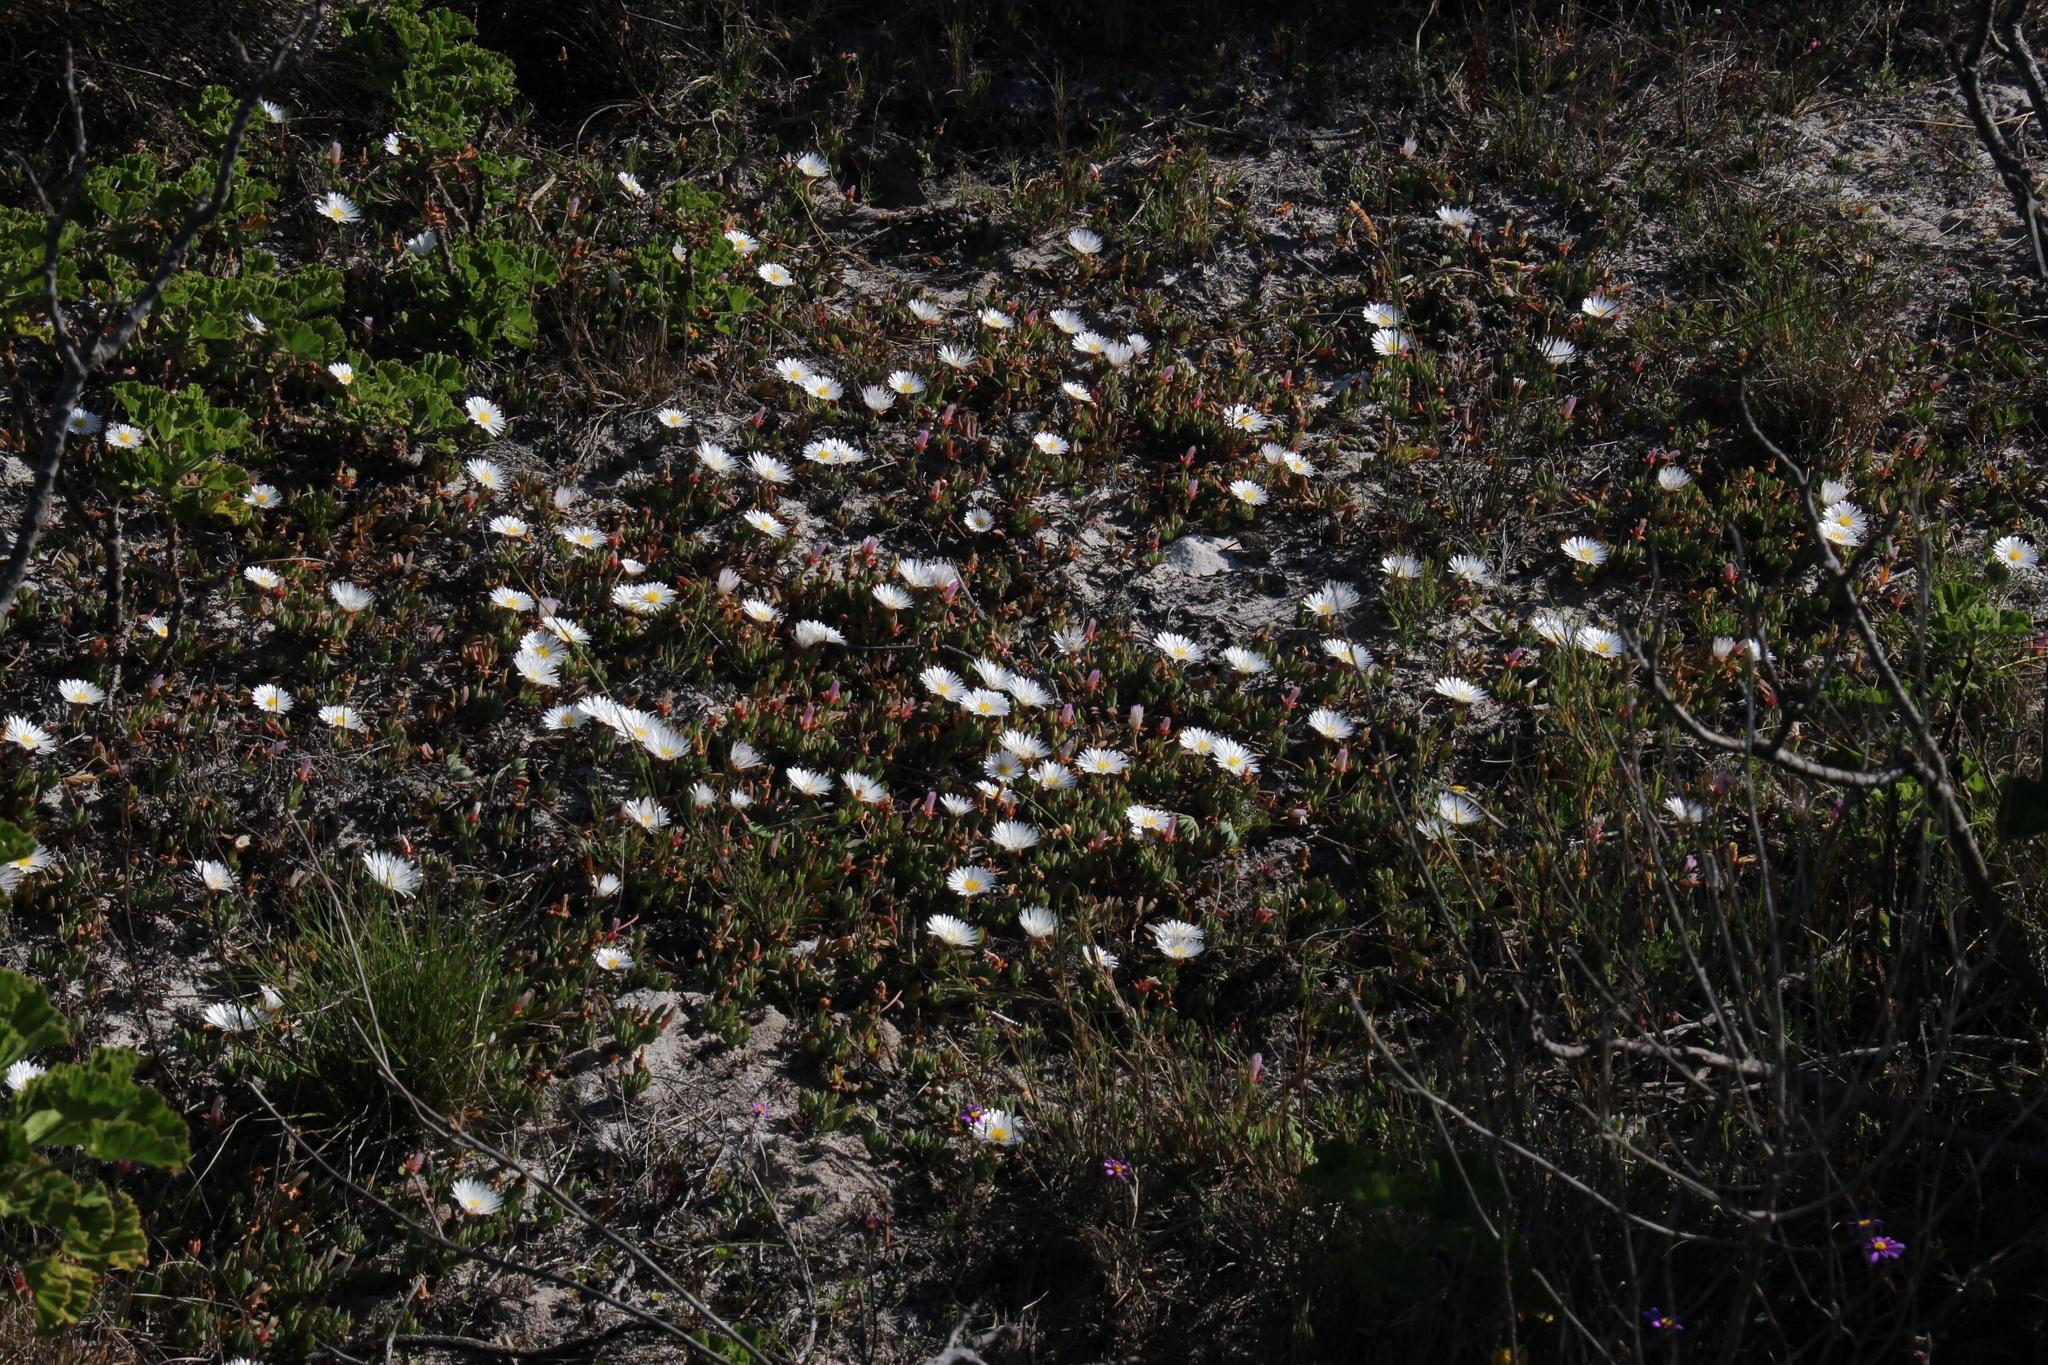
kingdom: Plantae
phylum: Tracheophyta
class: Magnoliopsida
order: Caryophyllales
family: Aizoaceae
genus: Lampranthus
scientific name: Lampranthus reptans
